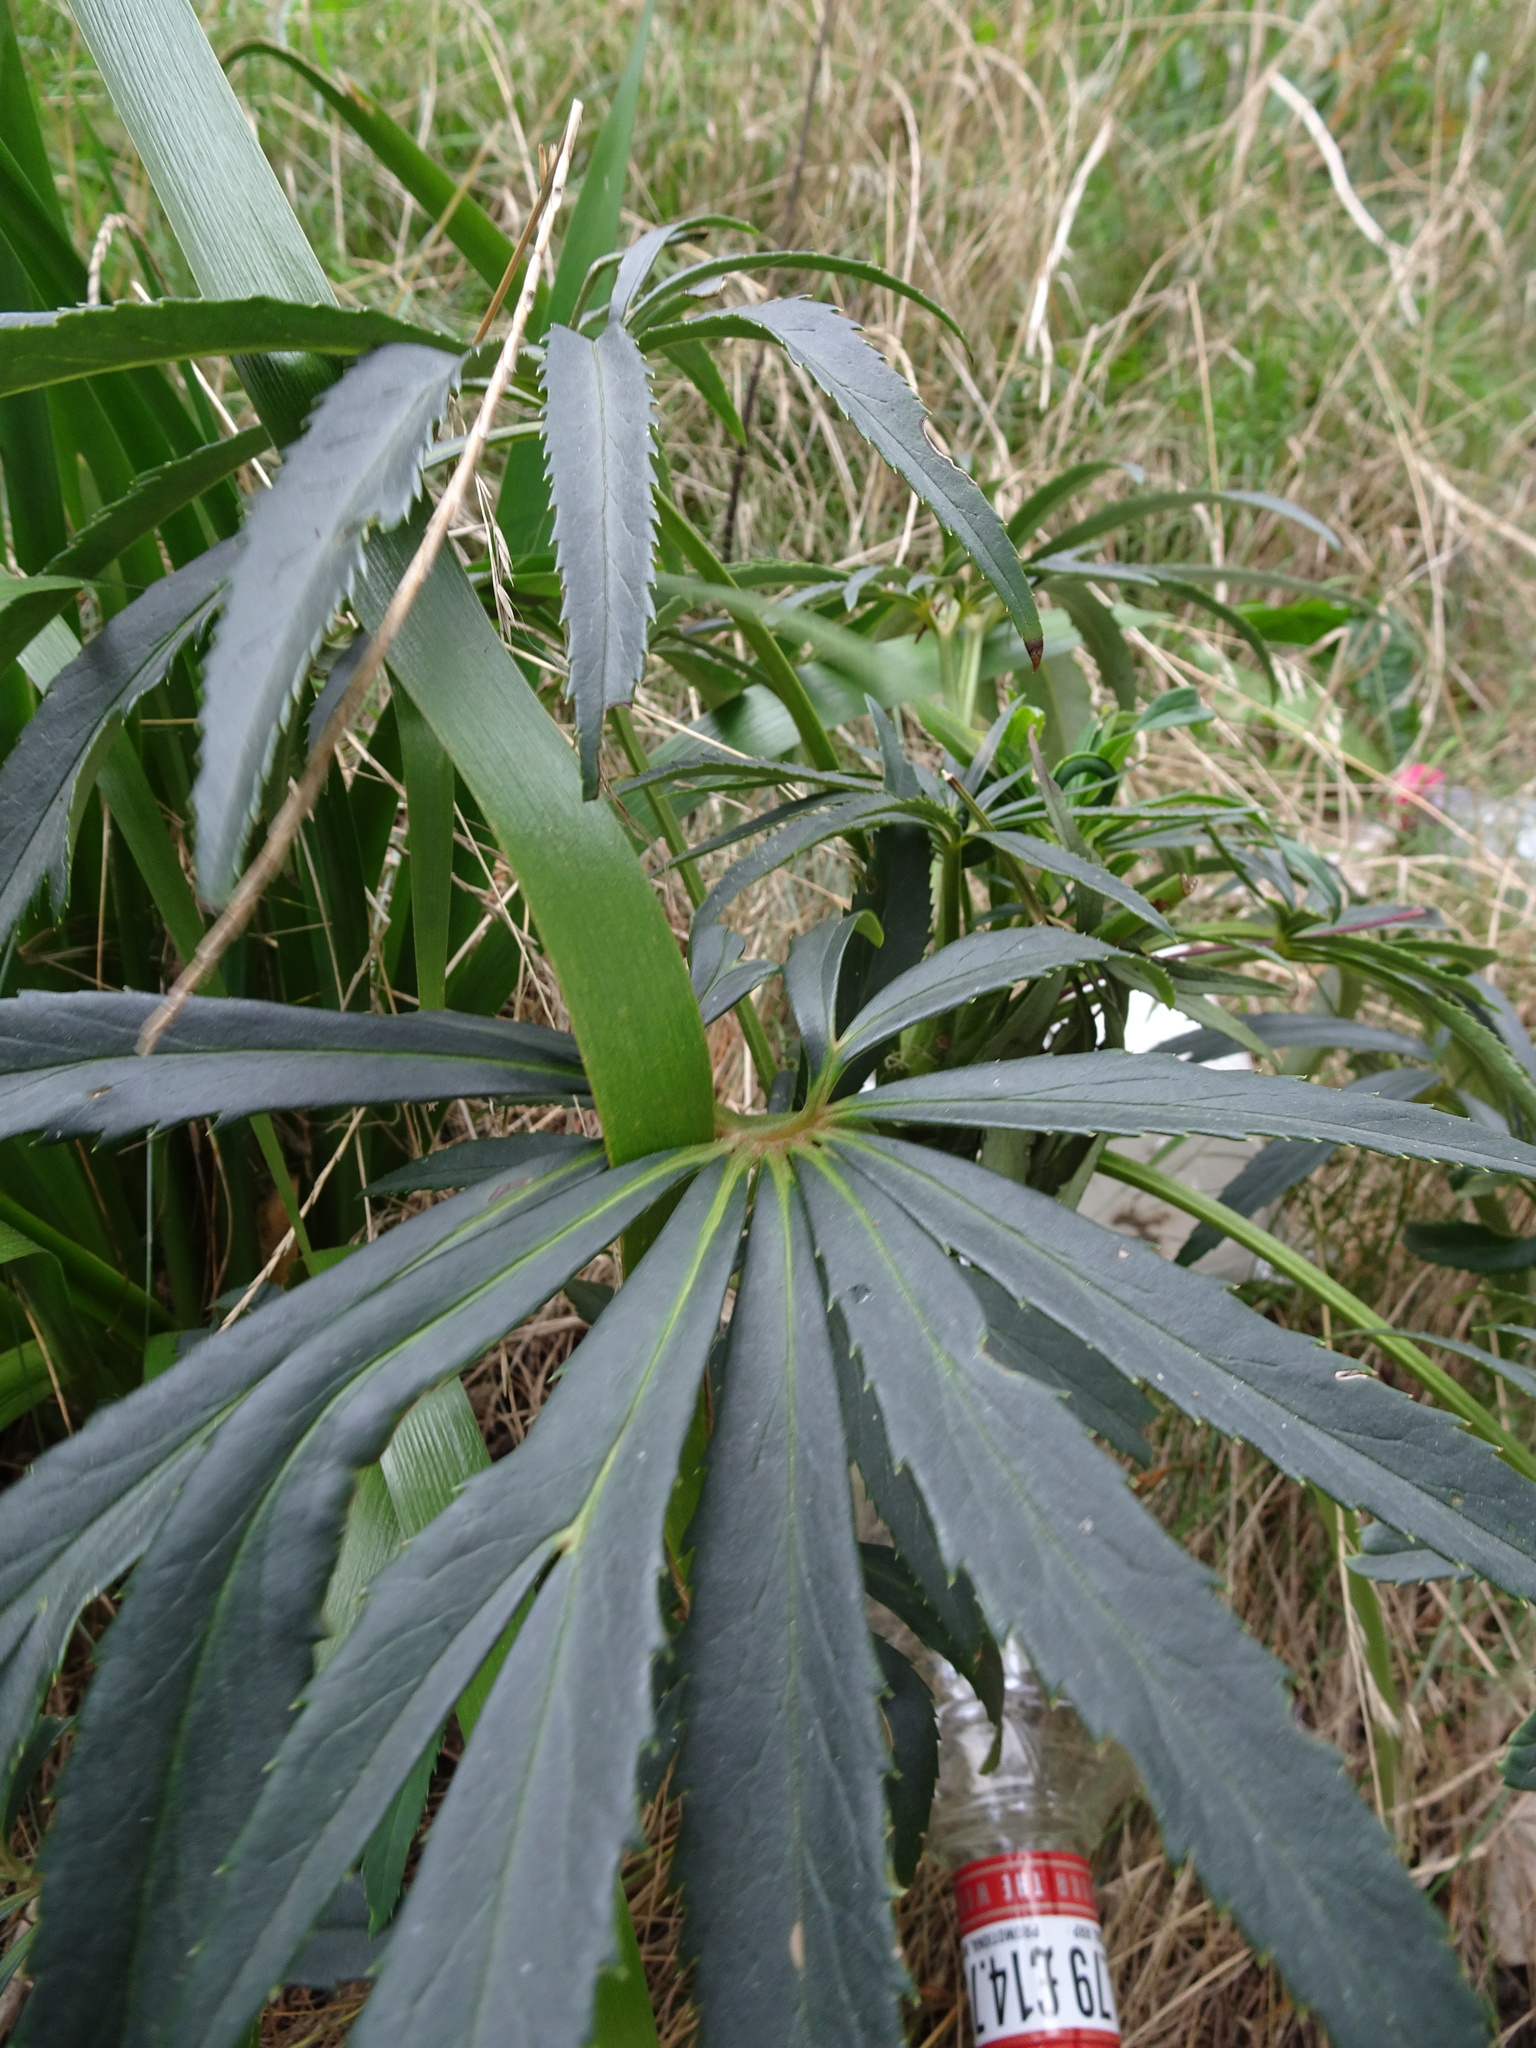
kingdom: Plantae
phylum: Tracheophyta
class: Magnoliopsida
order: Ranunculales
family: Ranunculaceae
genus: Helleborus
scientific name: Helleborus foetidus
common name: Stinking hellebore
